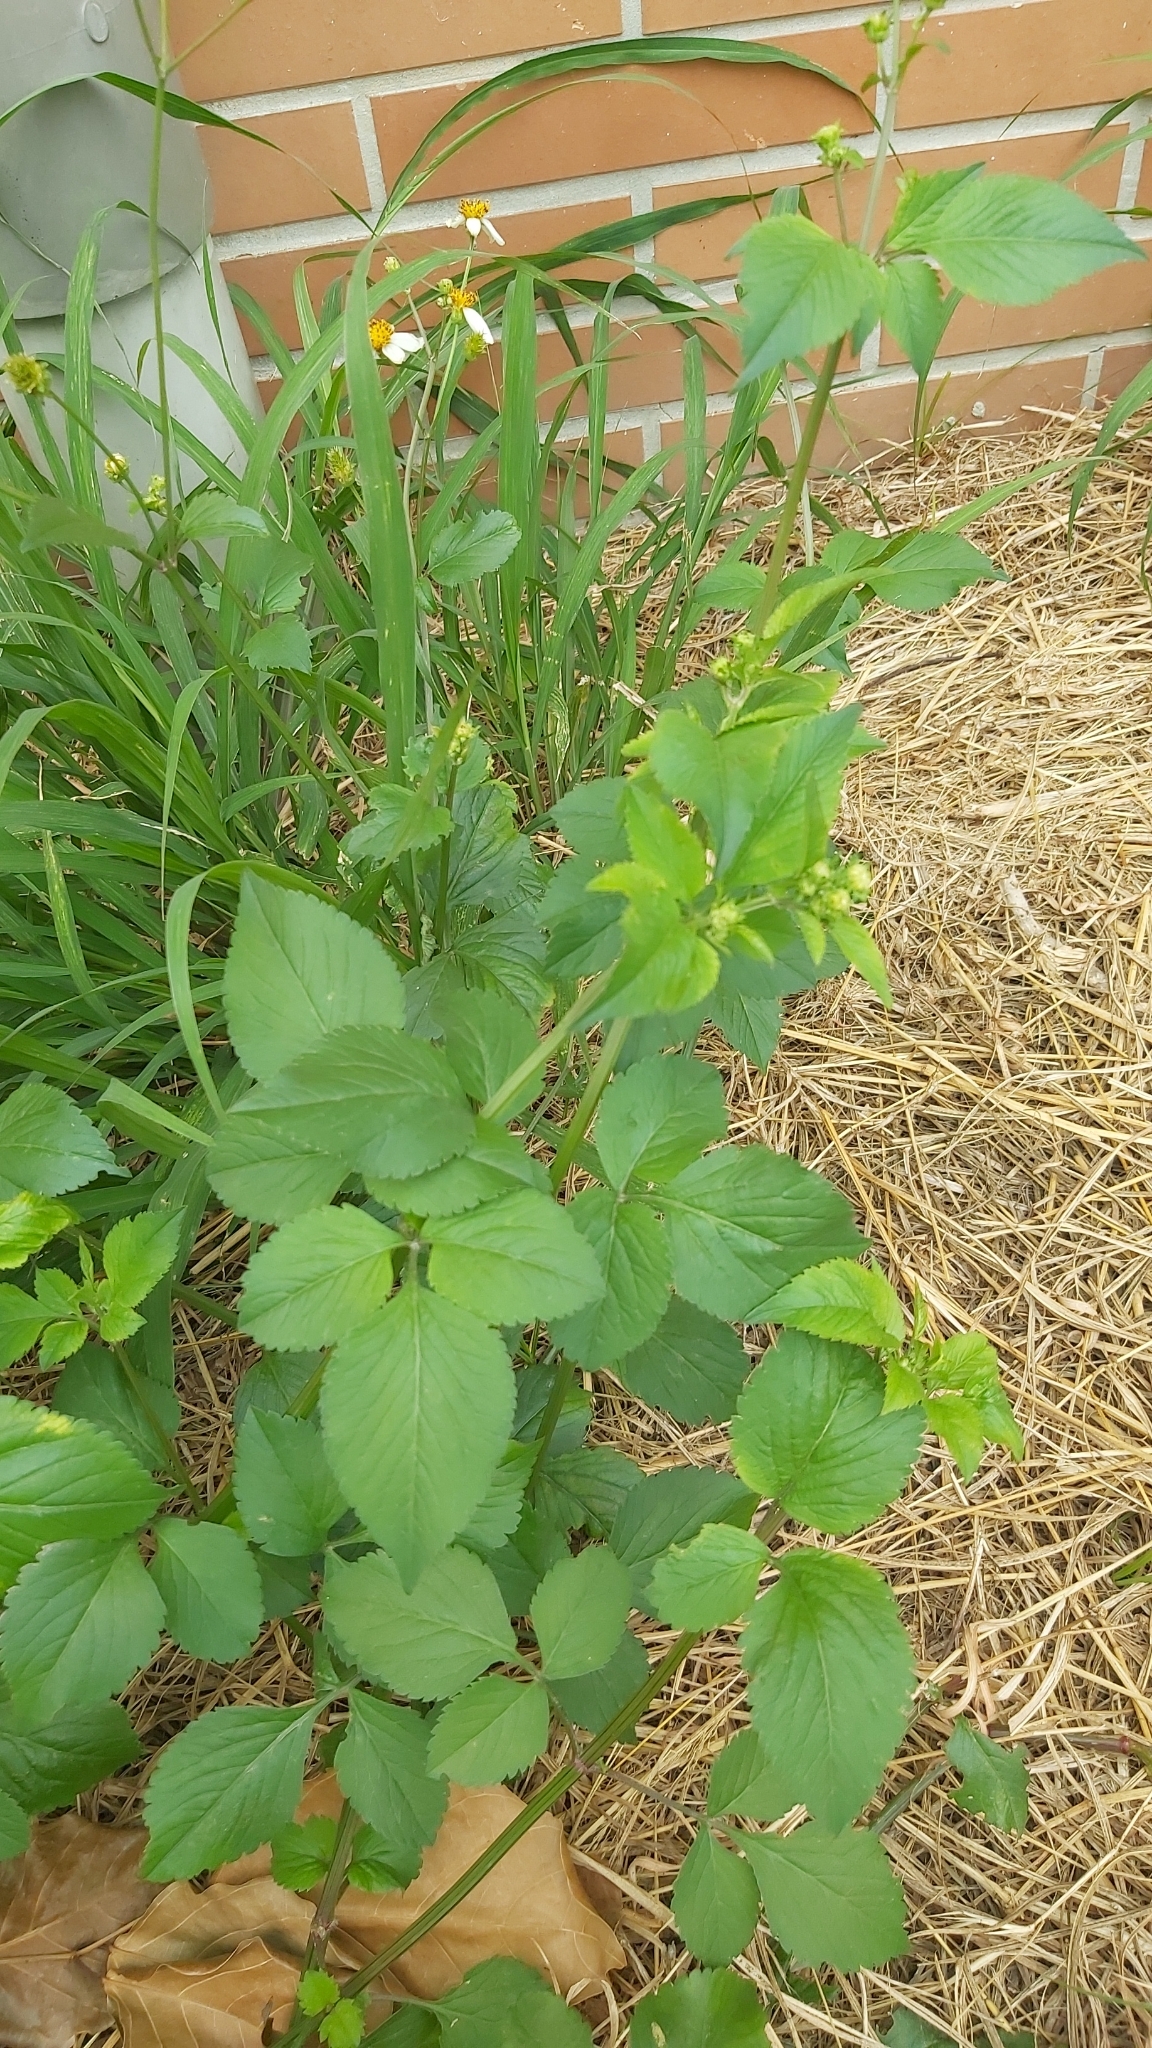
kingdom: Plantae
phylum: Tracheophyta
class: Magnoliopsida
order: Asterales
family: Asteraceae
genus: Bidens
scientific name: Bidens alba
